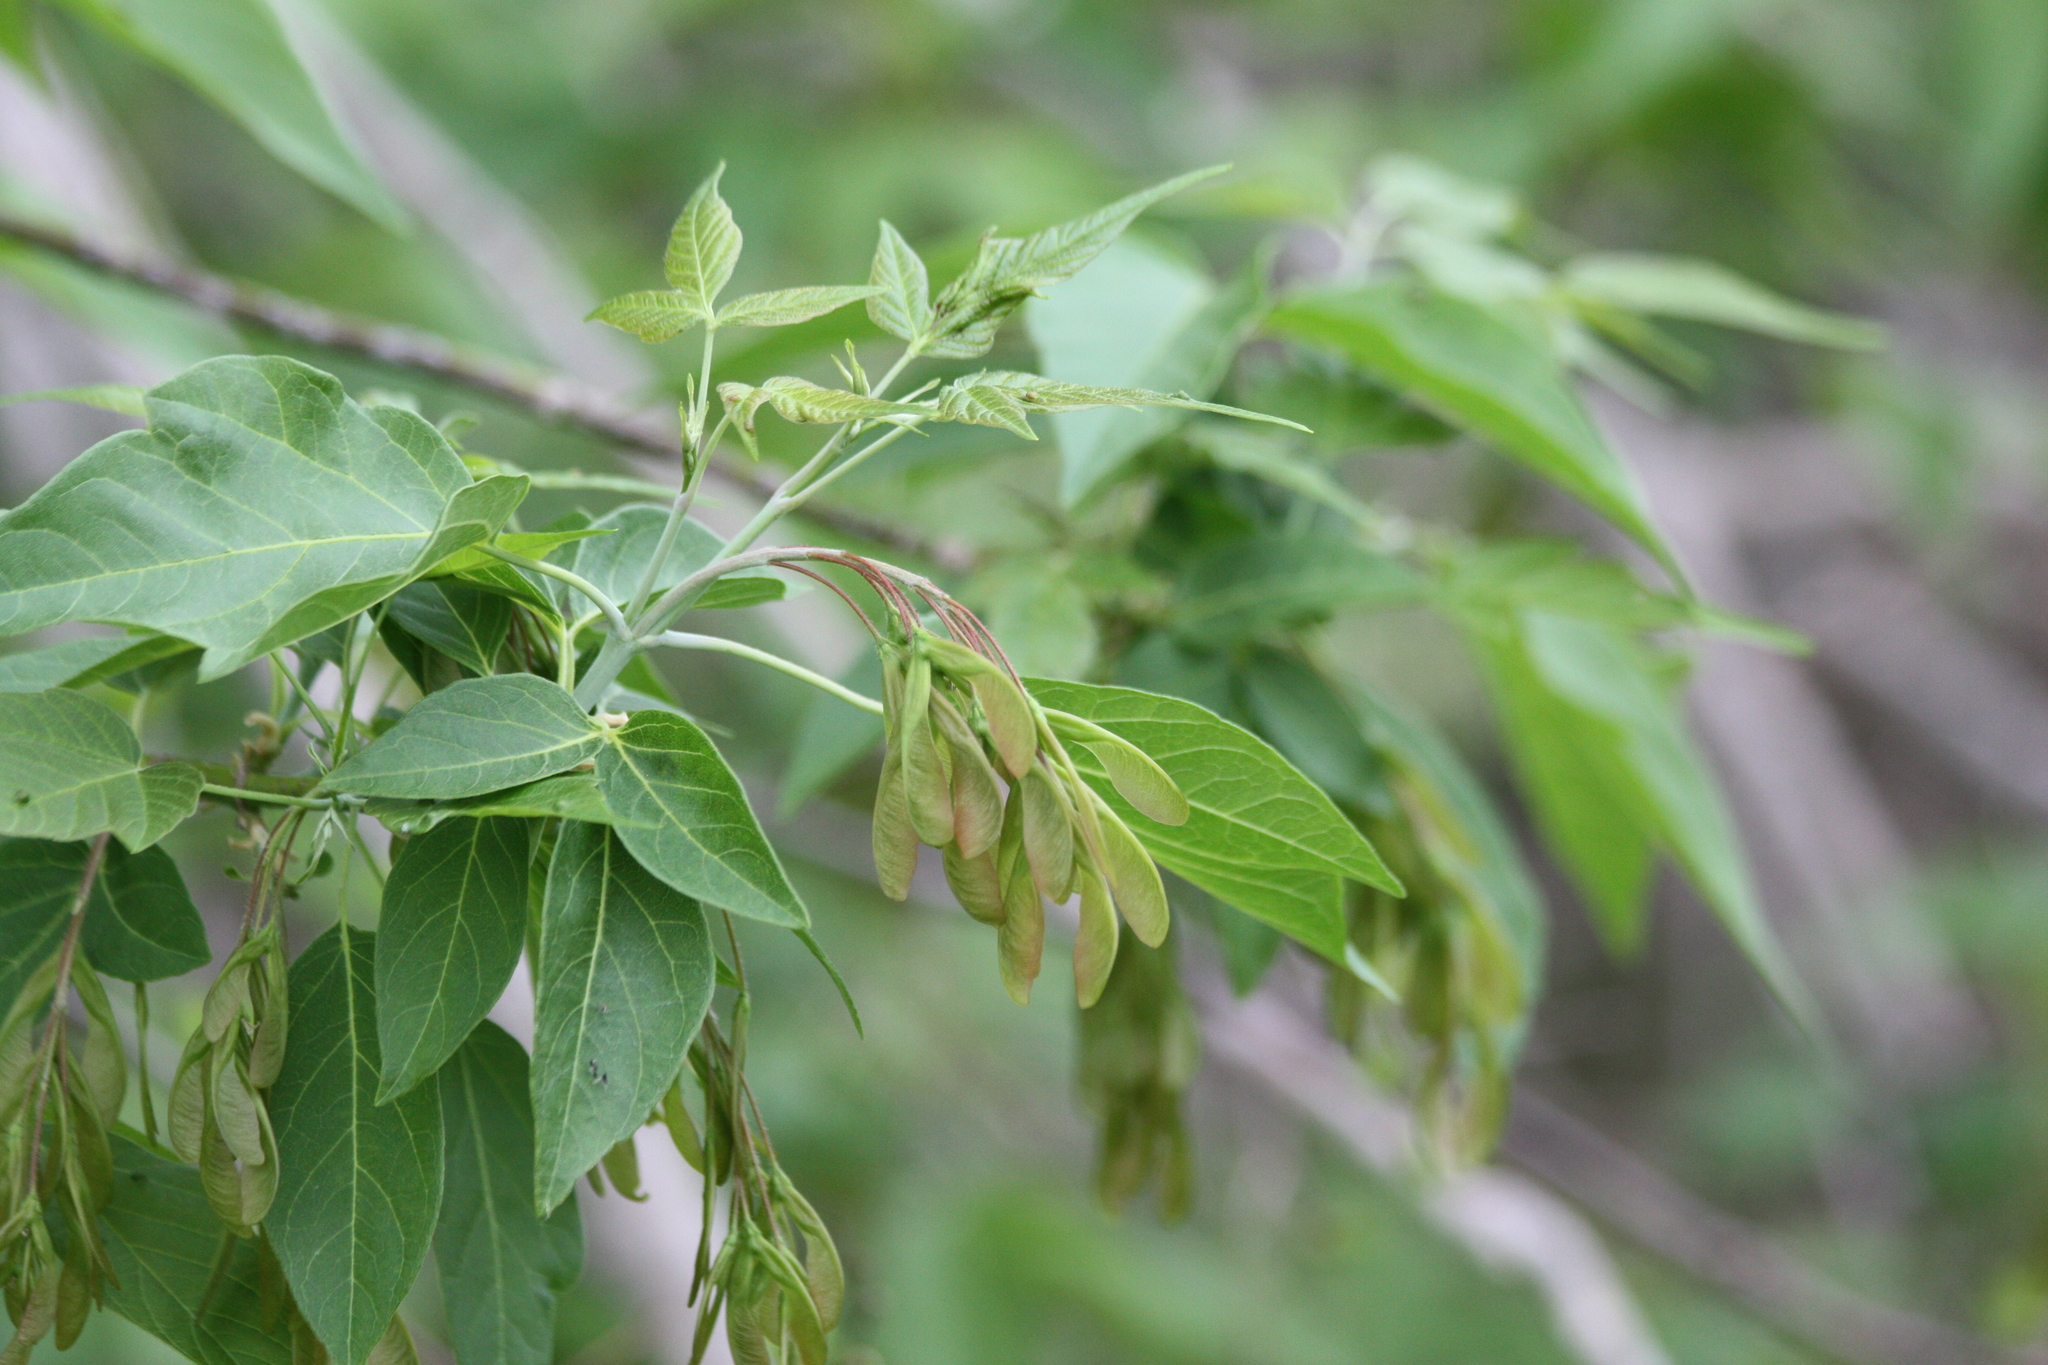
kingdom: Plantae
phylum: Tracheophyta
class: Magnoliopsida
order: Sapindales
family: Sapindaceae
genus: Acer
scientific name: Acer negundo
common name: Ashleaf maple
